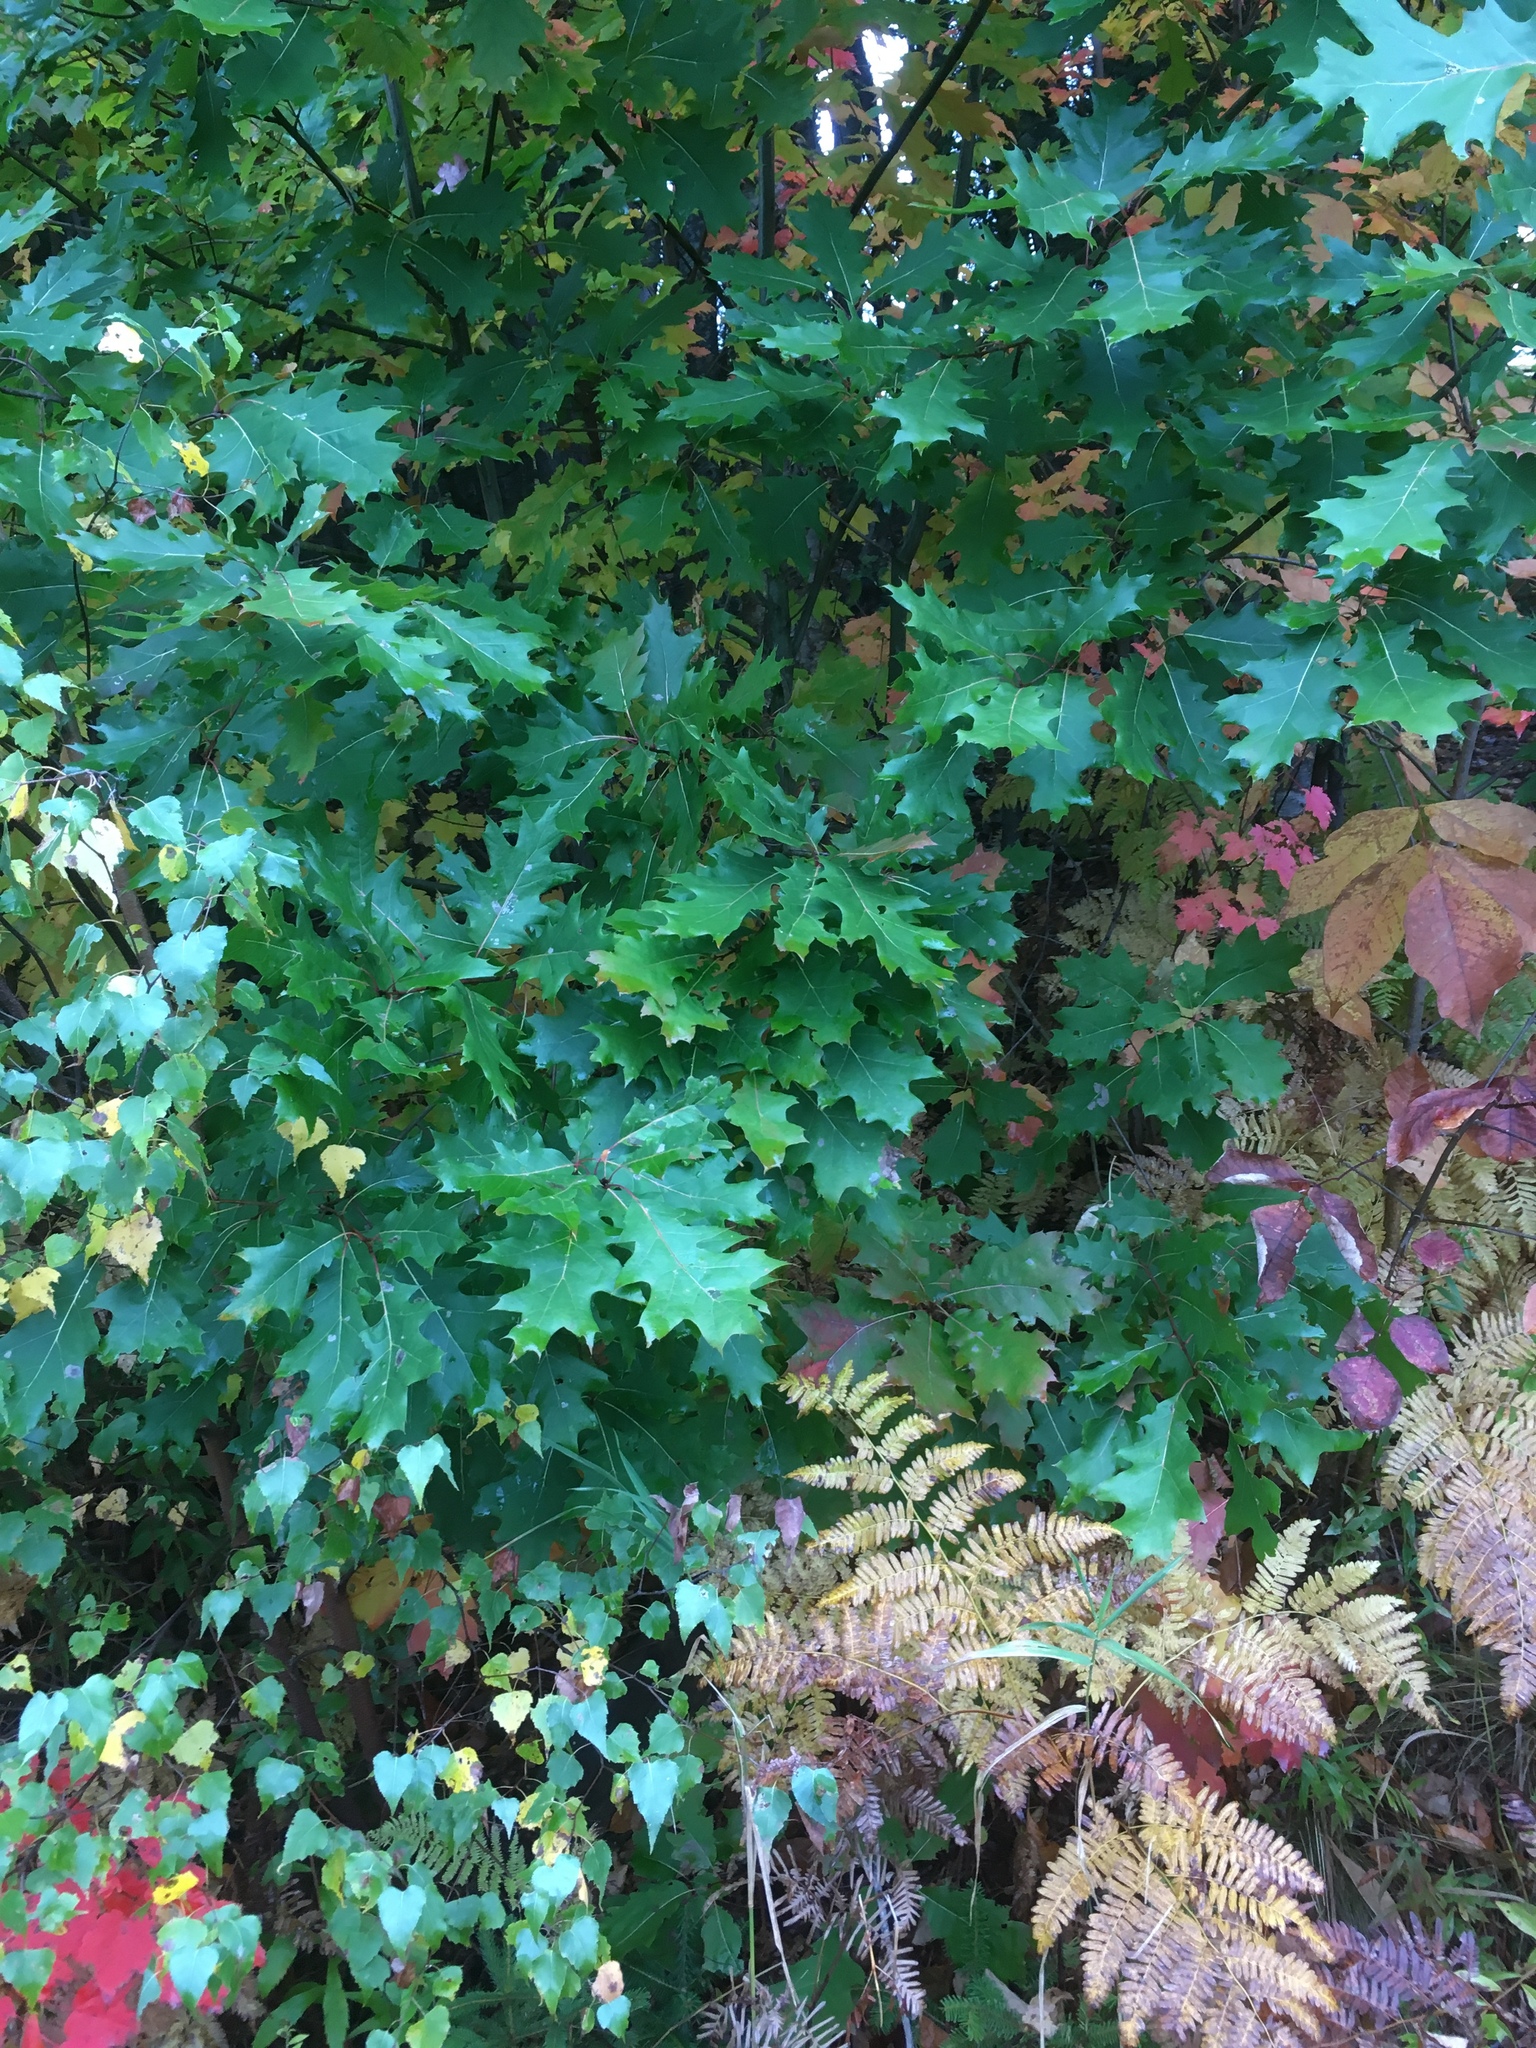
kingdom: Plantae
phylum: Tracheophyta
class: Magnoliopsida
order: Fagales
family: Fagaceae
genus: Quercus
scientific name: Quercus rubra
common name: Red oak
